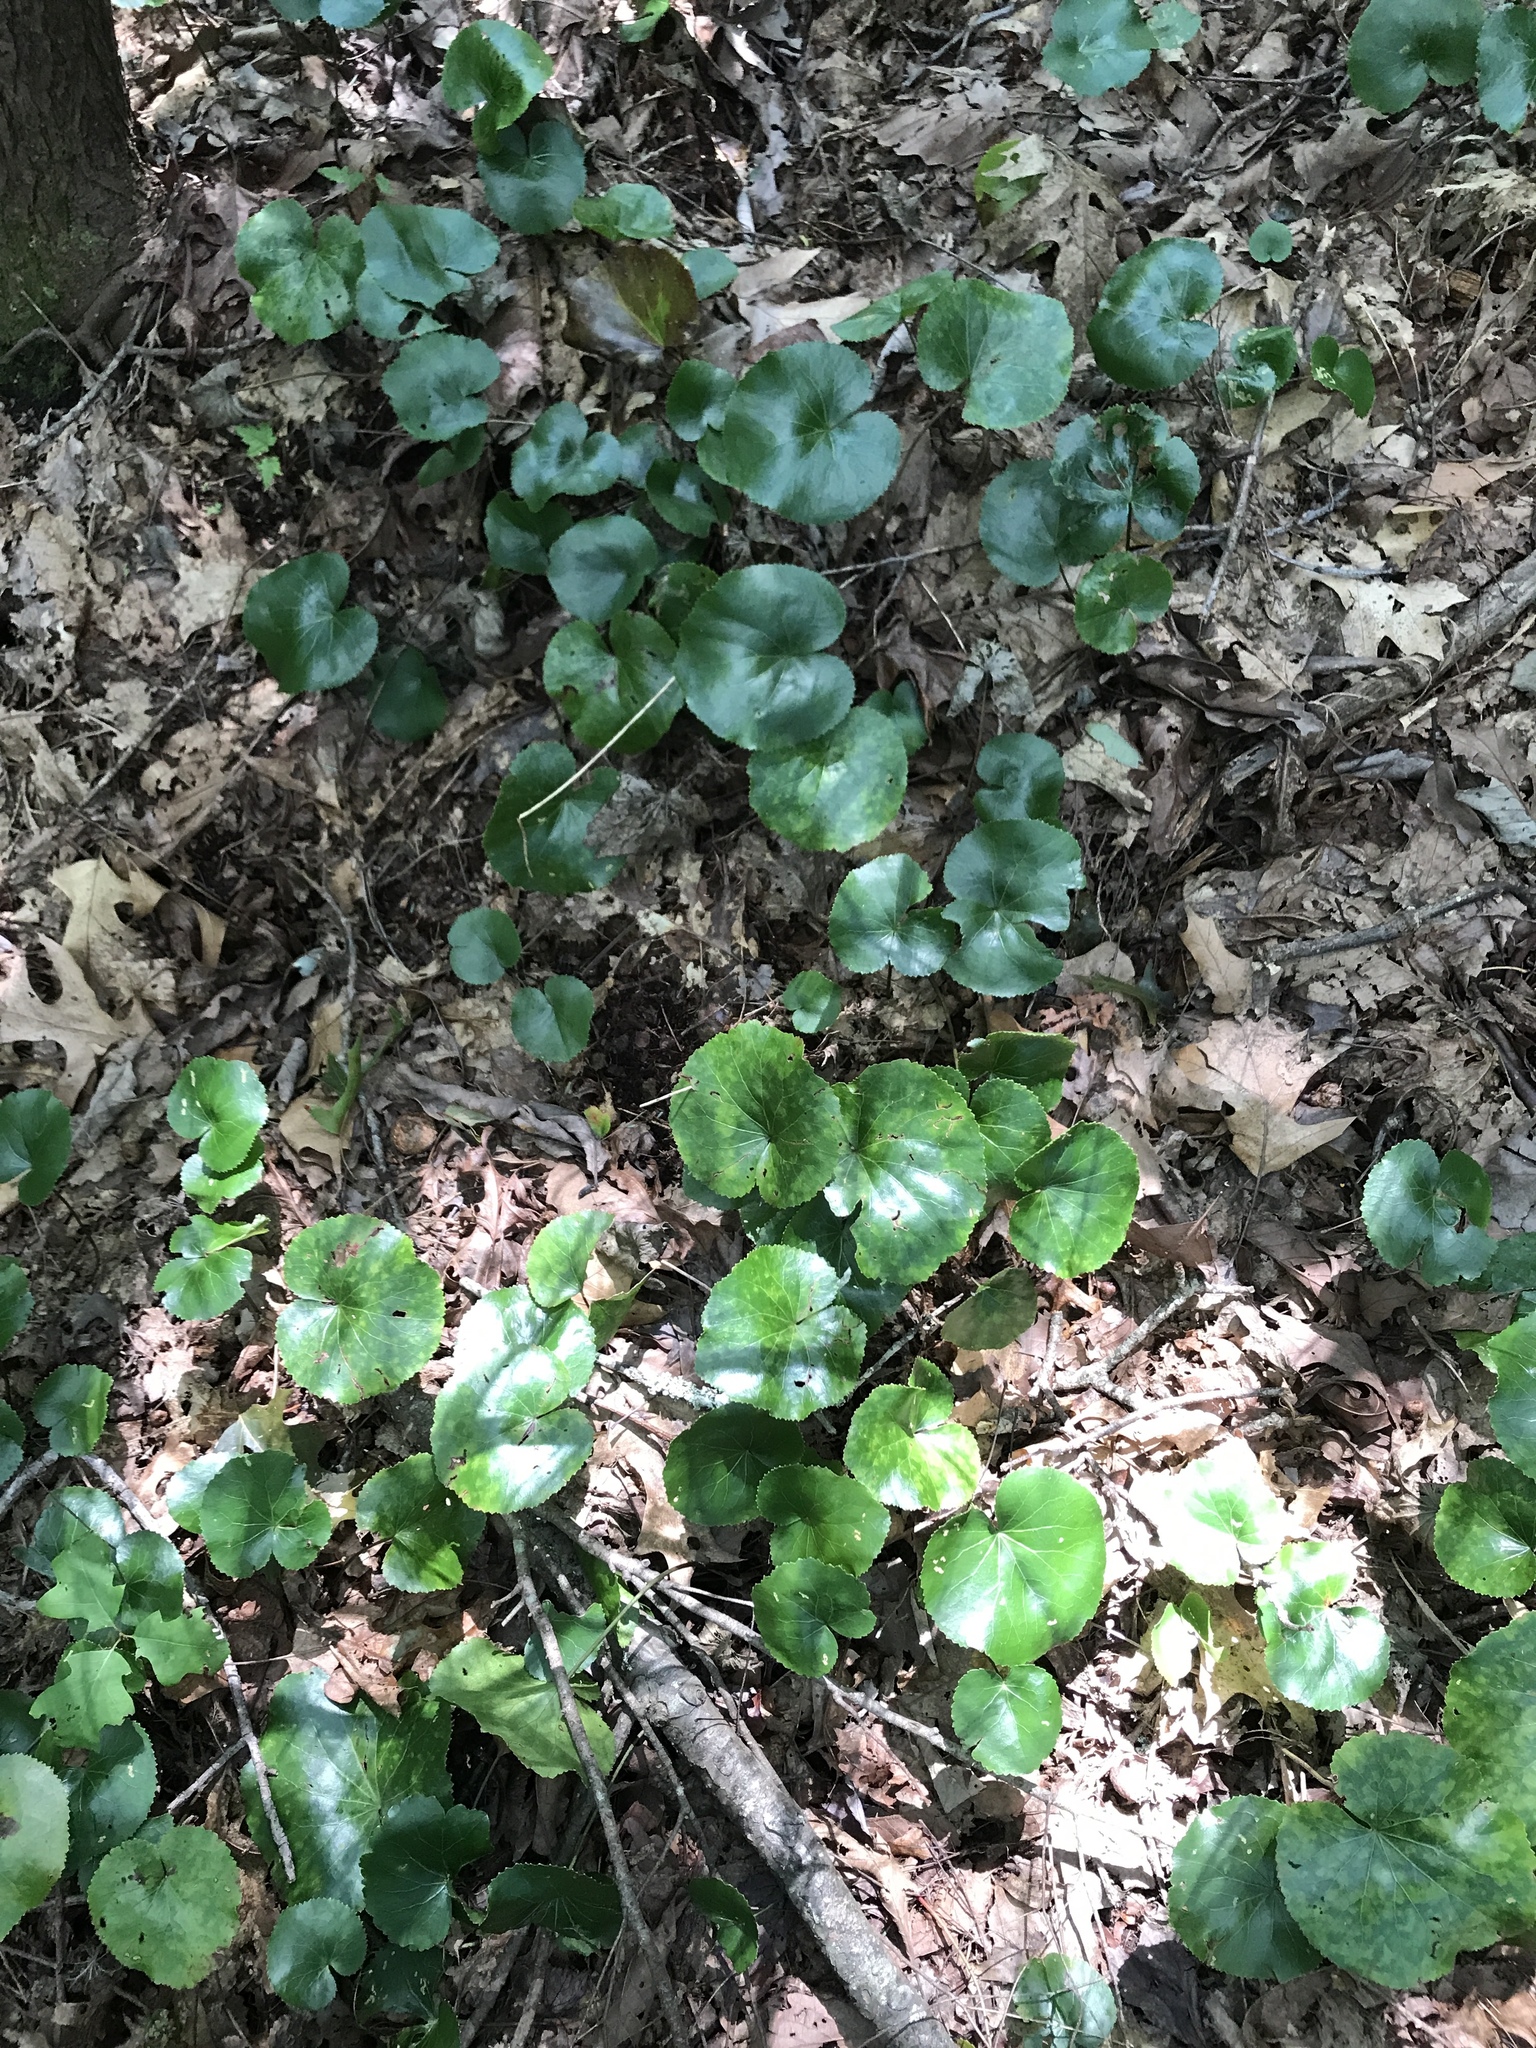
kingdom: Plantae
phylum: Tracheophyta
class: Magnoliopsida
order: Ericales
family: Diapensiaceae
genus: Galax
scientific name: Galax urceolata
